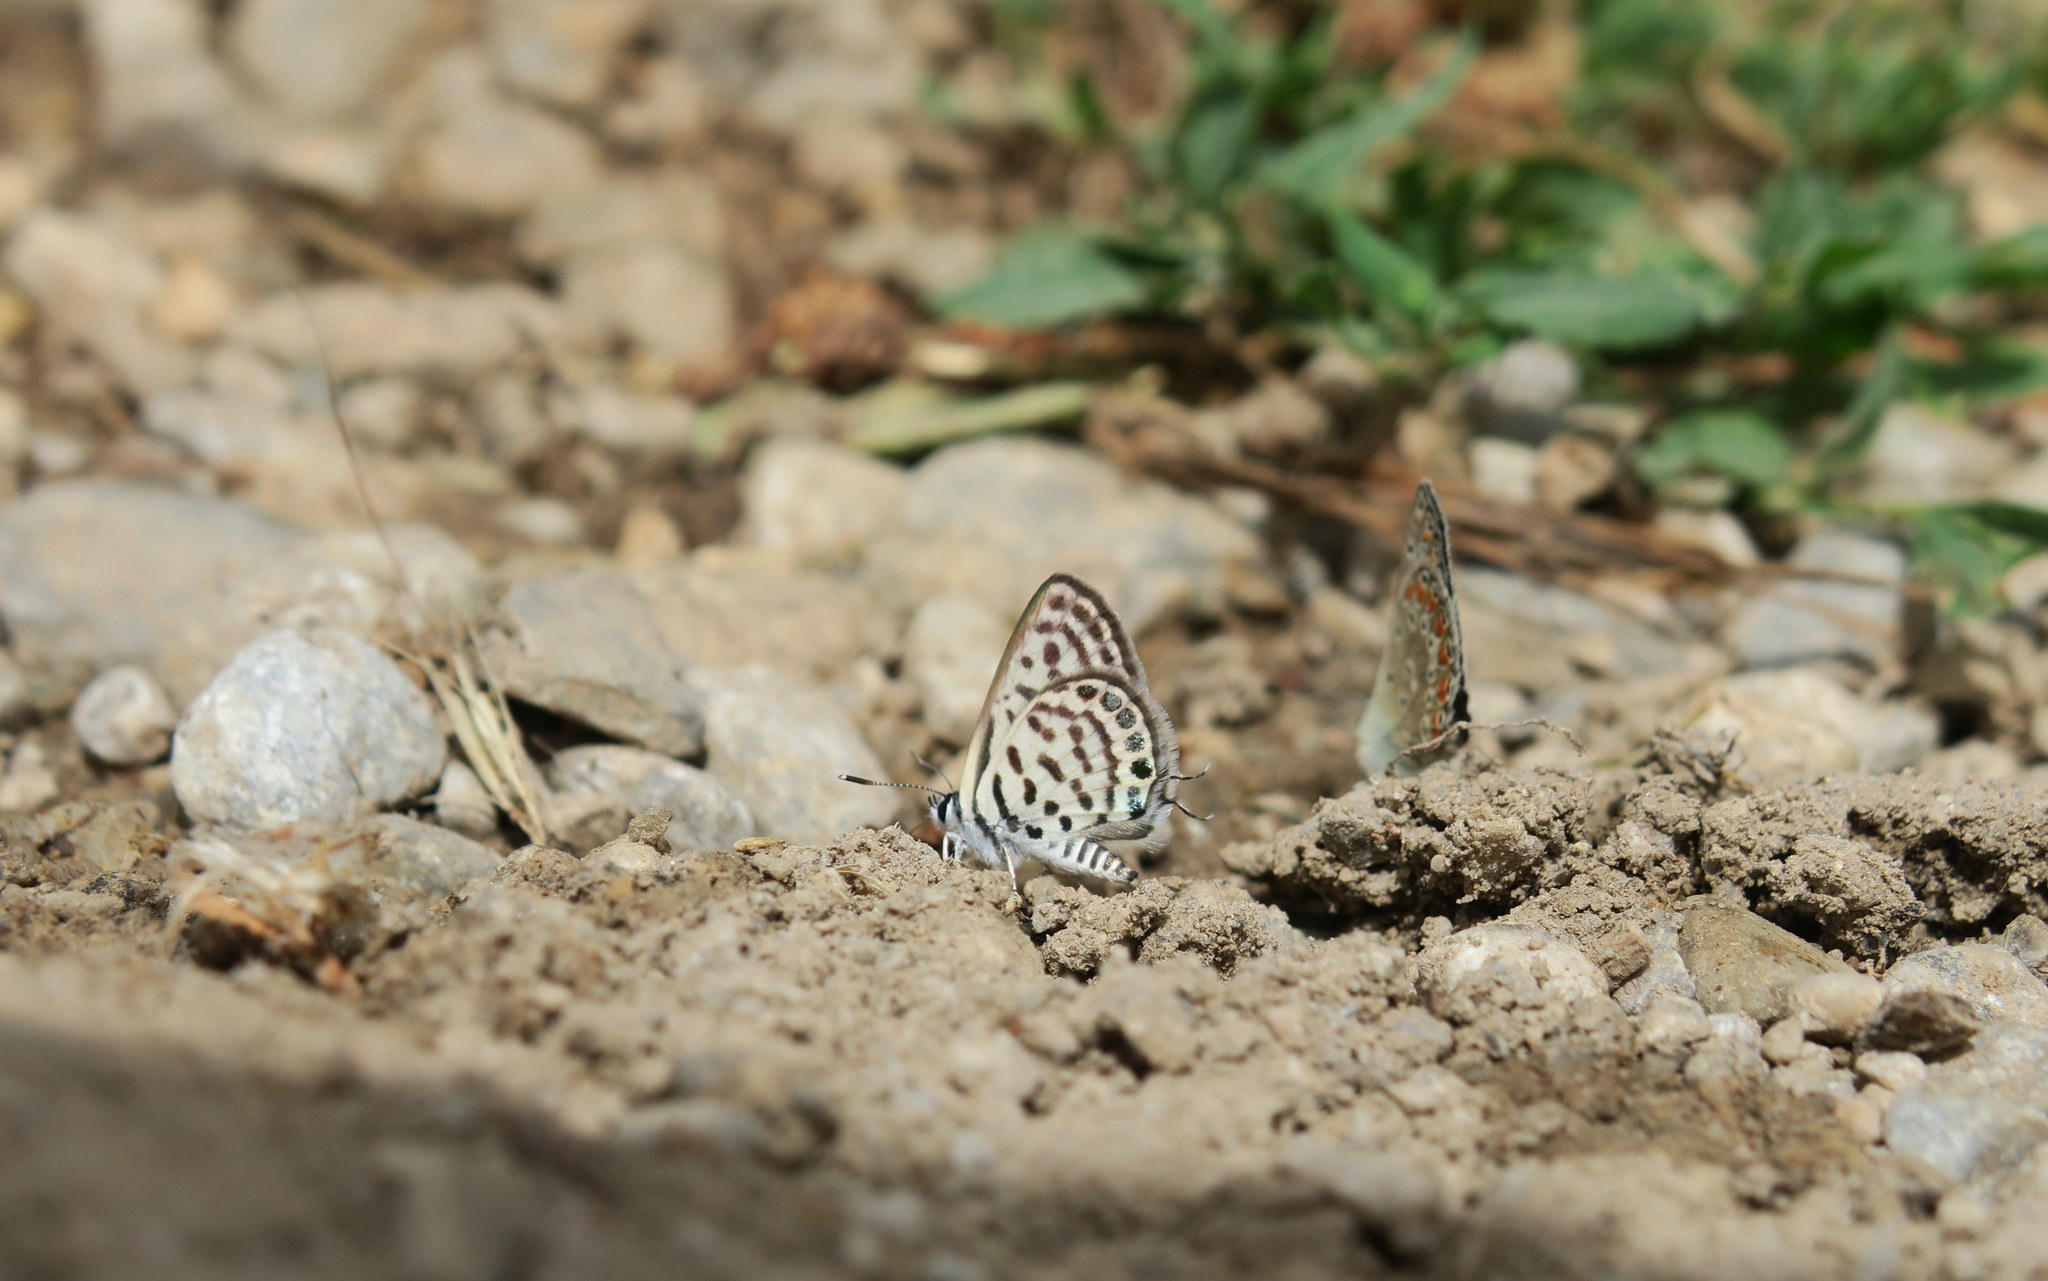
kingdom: Animalia
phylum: Arthropoda
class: Insecta
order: Lepidoptera
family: Lycaenidae
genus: Tarucus
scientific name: Tarucus balkanica
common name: Little tiger blue
